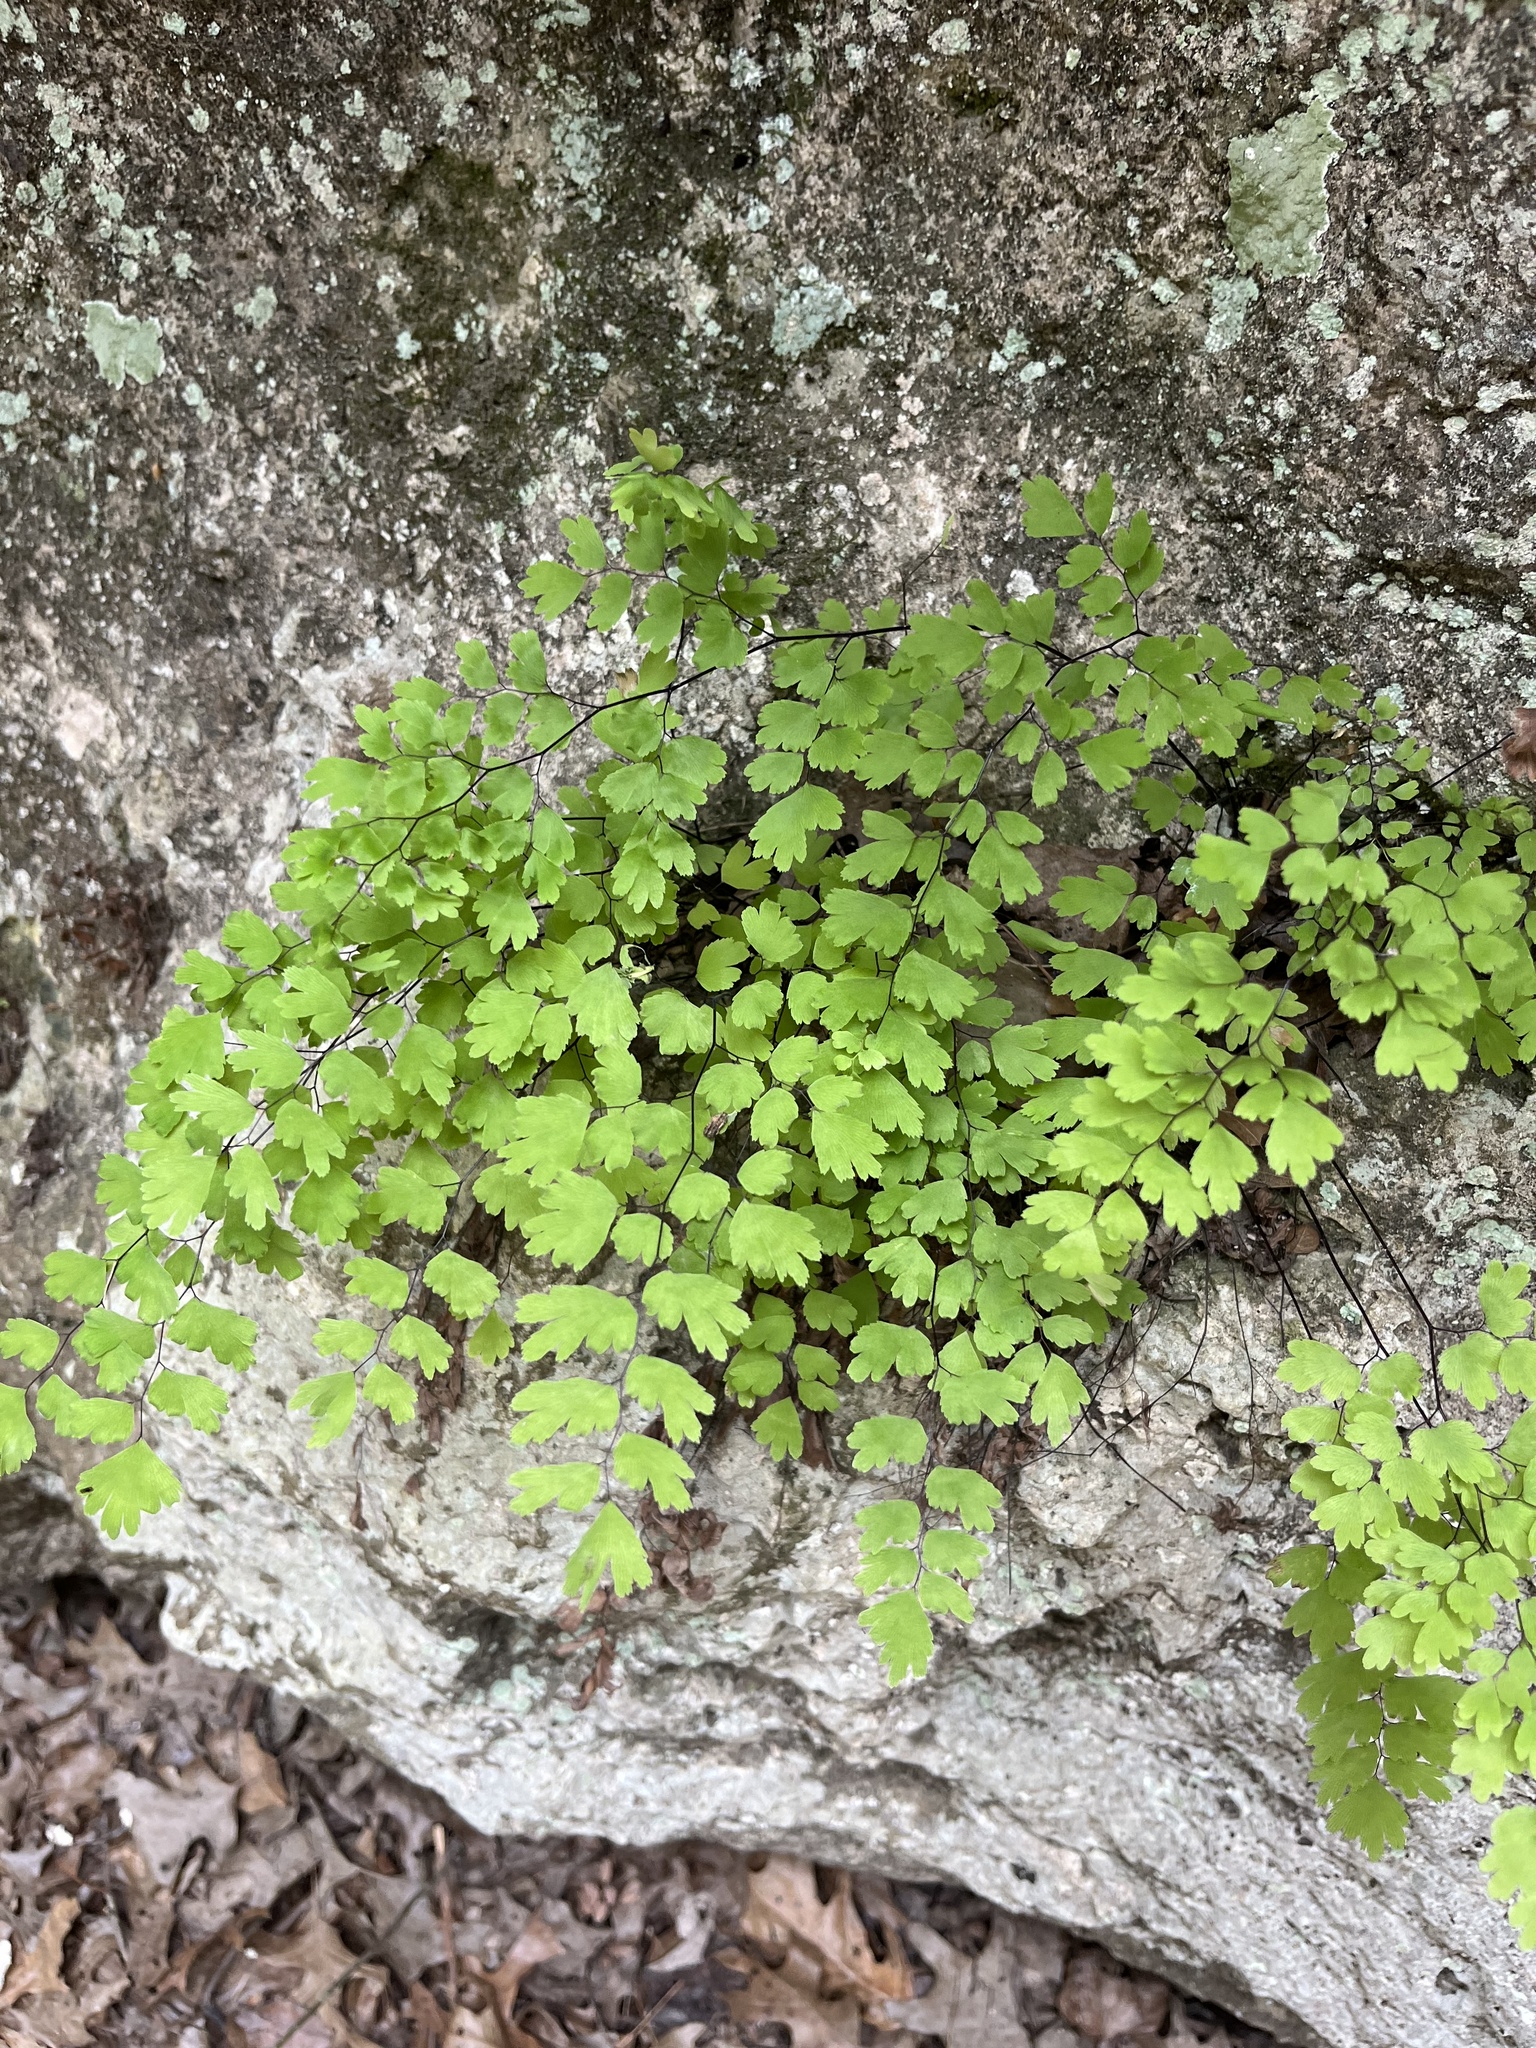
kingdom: Plantae
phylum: Tracheophyta
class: Polypodiopsida
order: Polypodiales
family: Pteridaceae
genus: Adiantum
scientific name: Adiantum capillus-veneris
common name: Maidenhair fern
